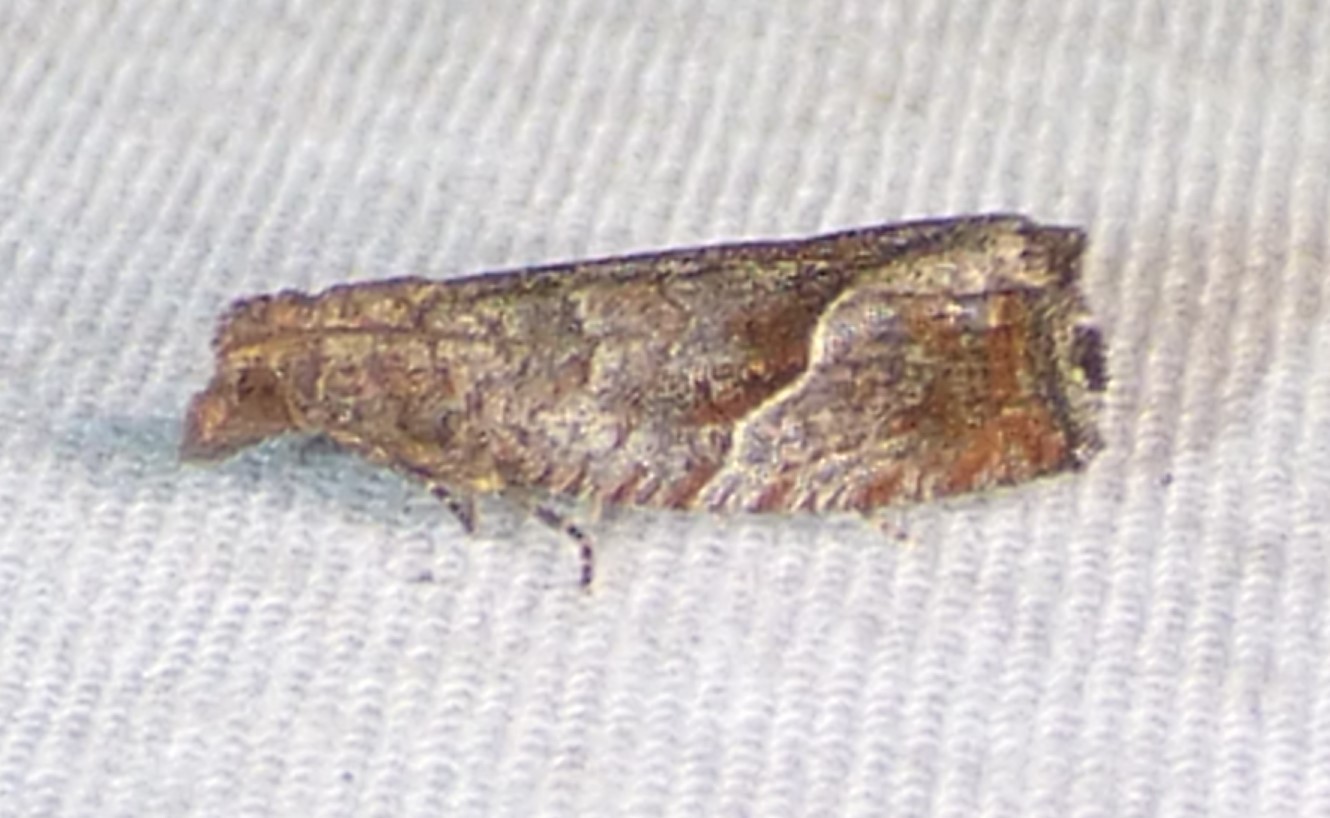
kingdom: Animalia
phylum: Arthropoda
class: Insecta
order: Lepidoptera
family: Tortricidae
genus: Pelochrista
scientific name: Pelochrista derelicta
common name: Derelict pelochrista moth
